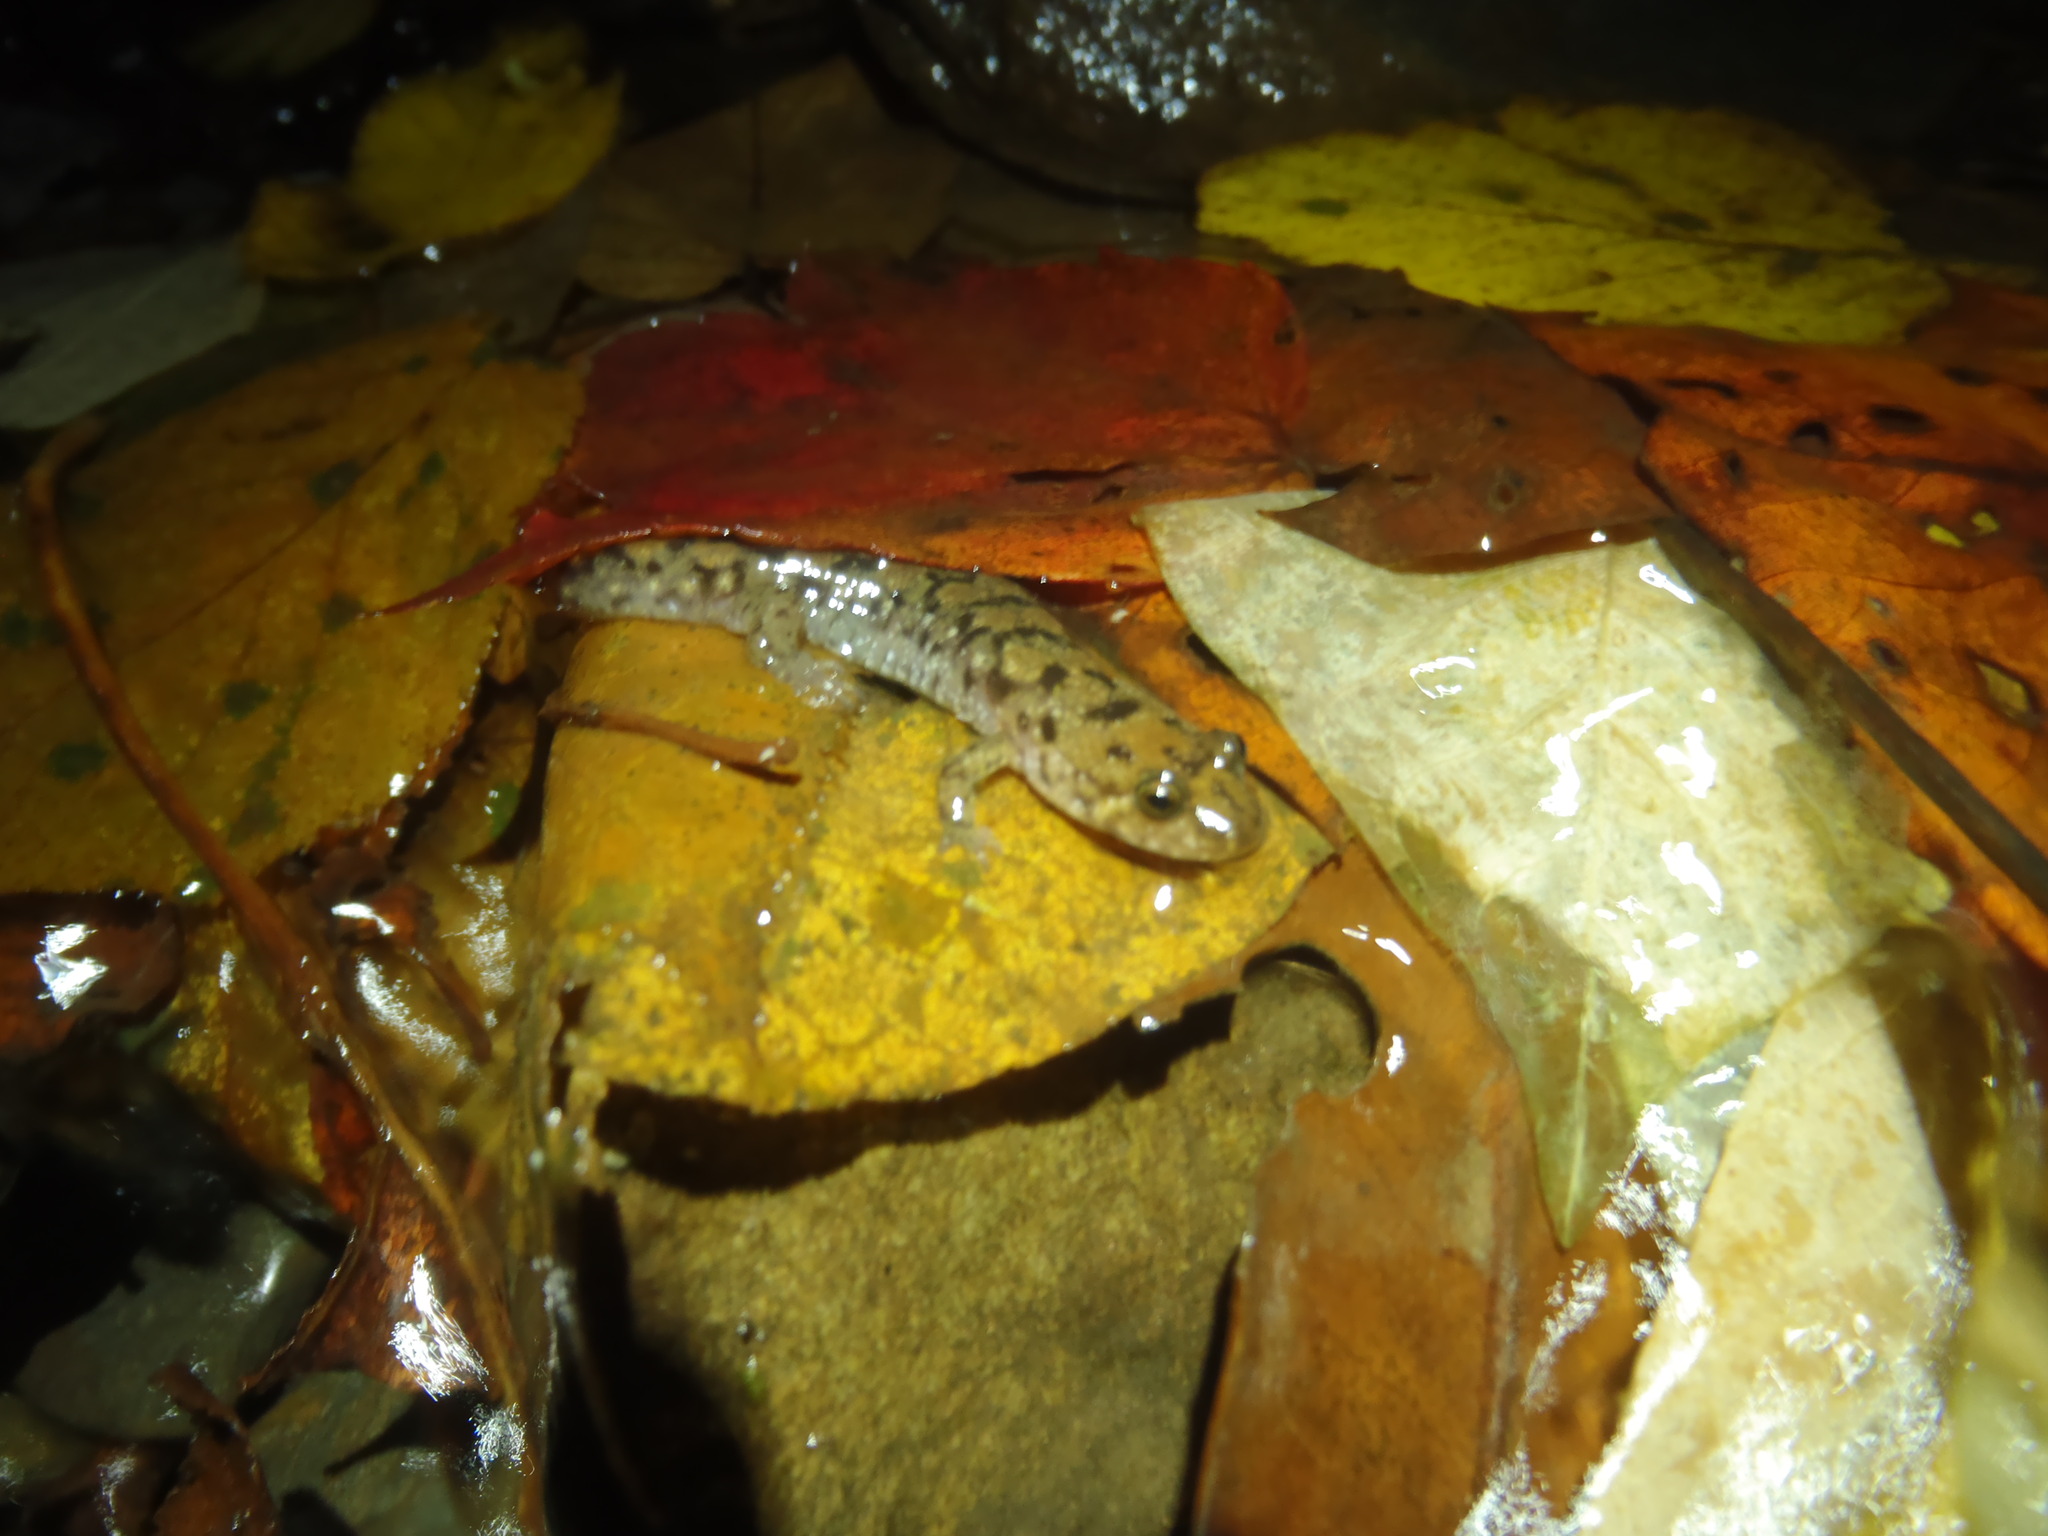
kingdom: Animalia
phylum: Chordata
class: Amphibia
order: Caudata
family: Plethodontidae
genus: Desmognathus
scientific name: Desmognathus monticola
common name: Seal salamander
